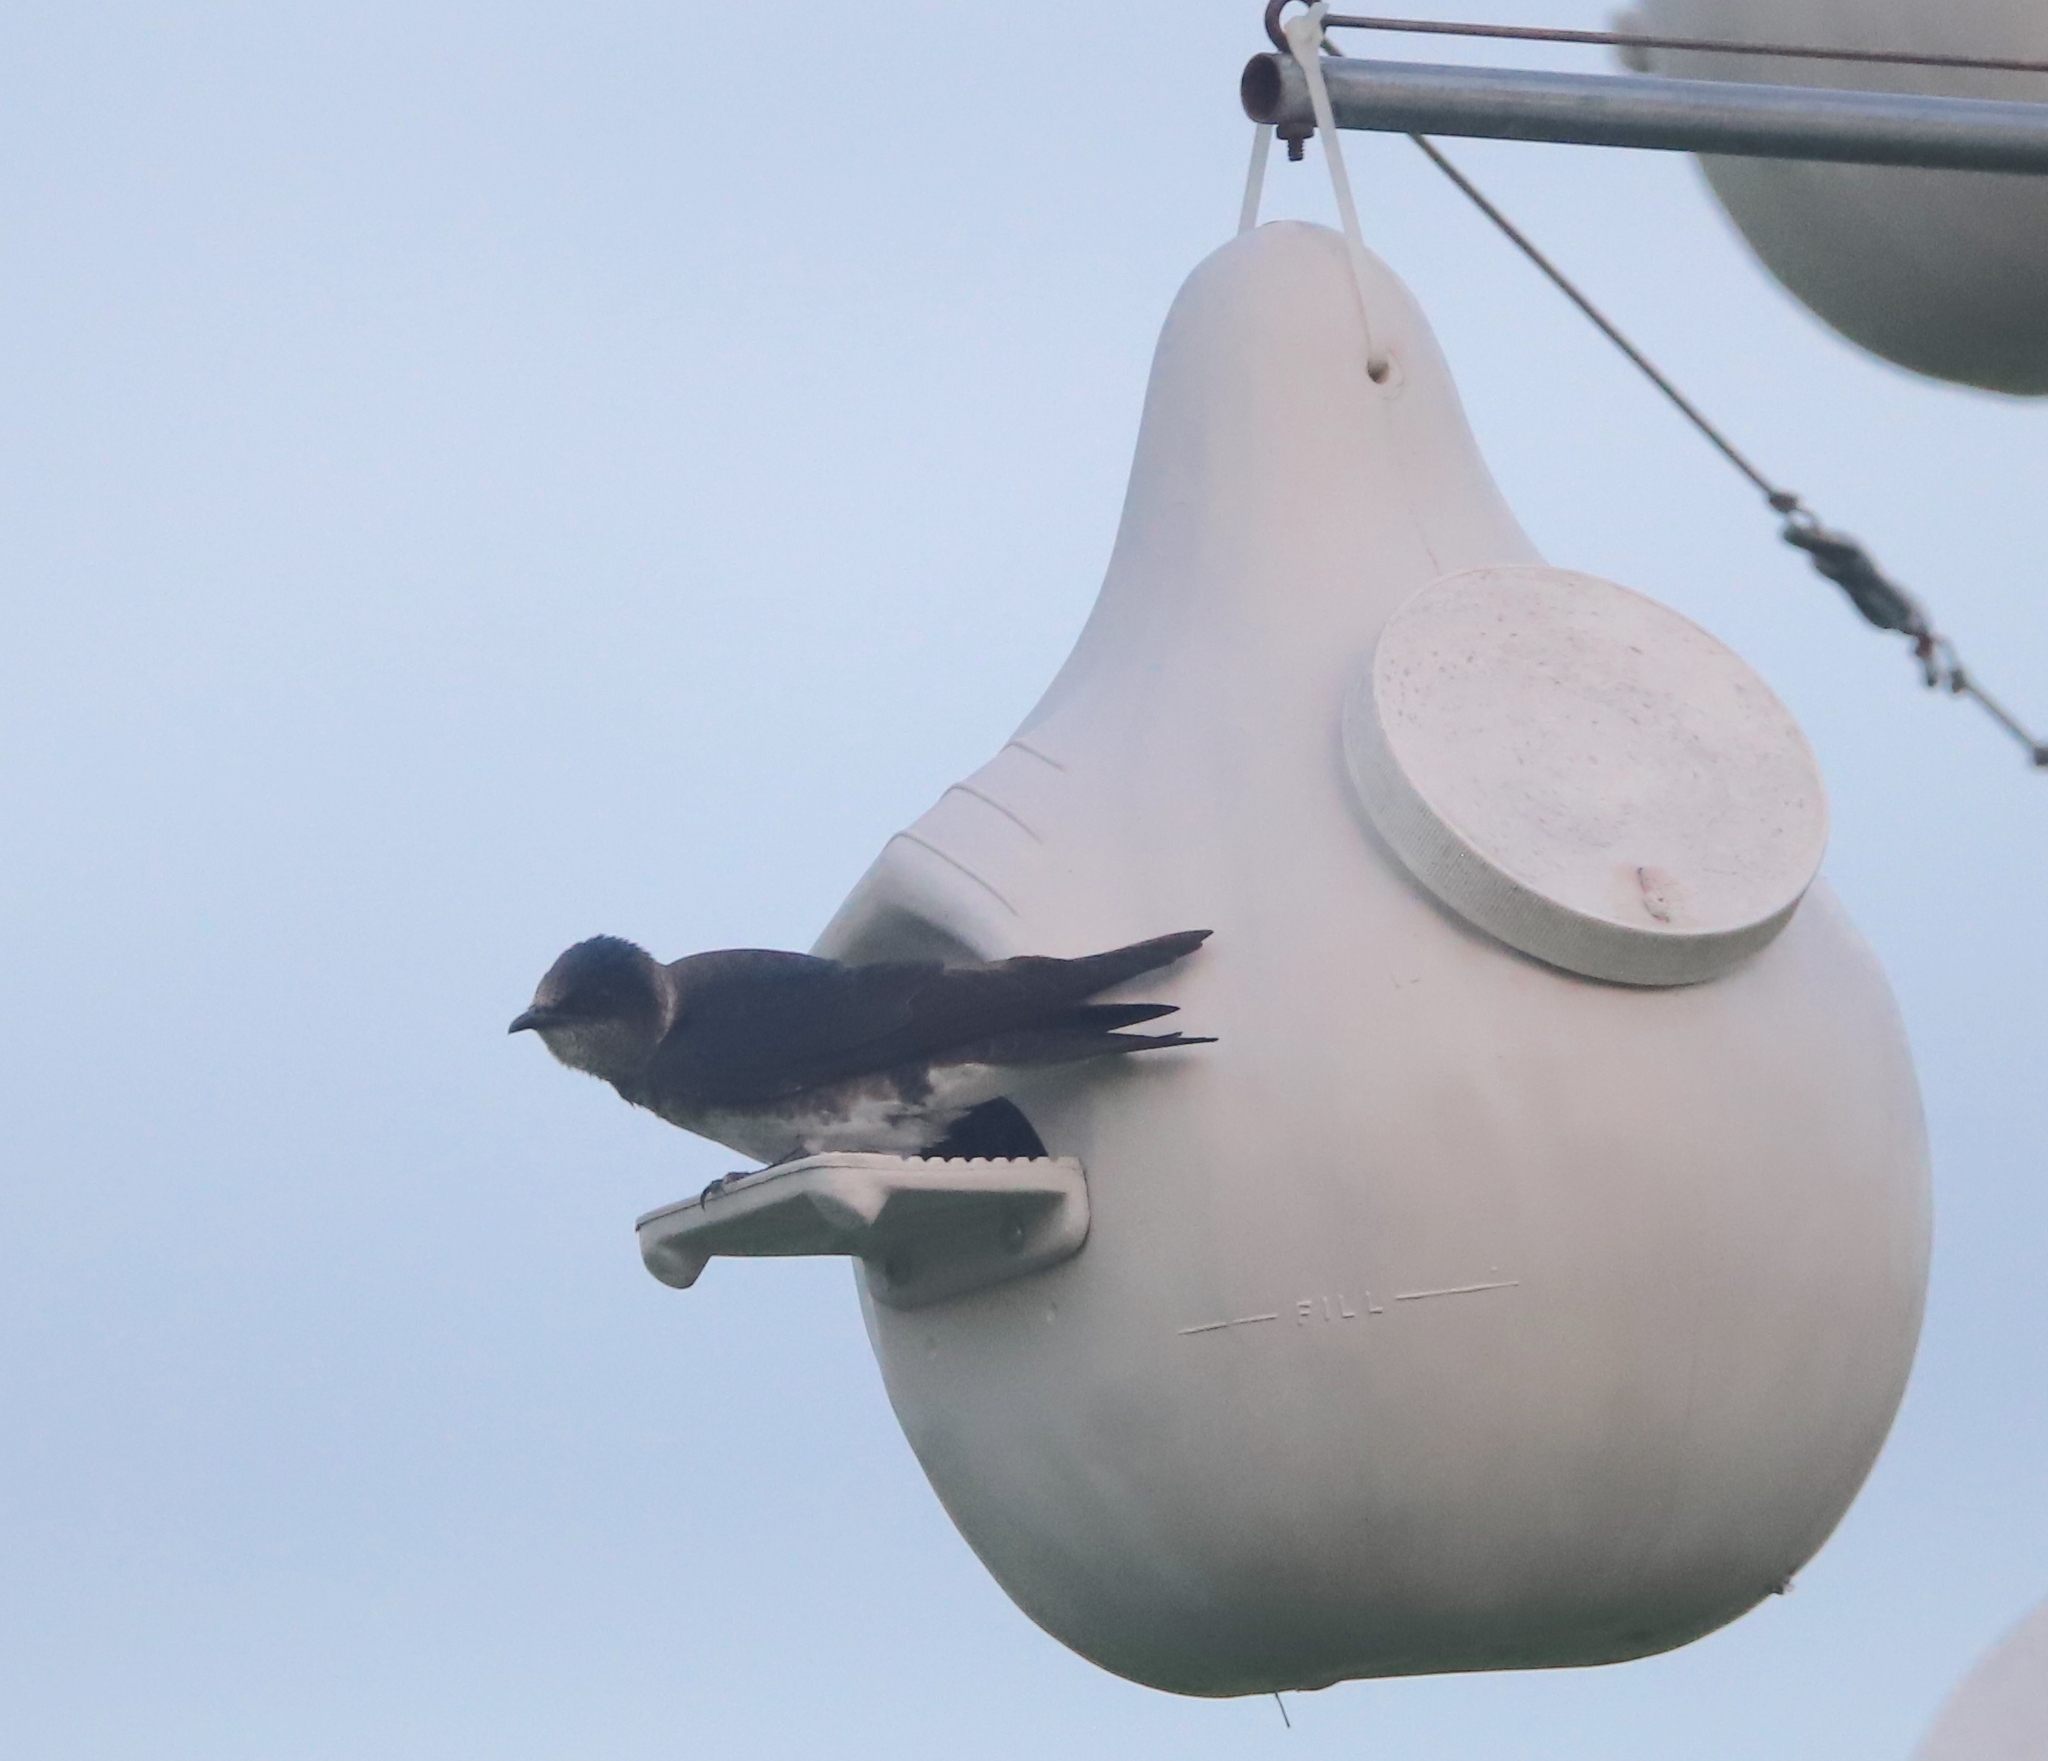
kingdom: Animalia
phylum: Chordata
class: Aves
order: Passeriformes
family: Hirundinidae
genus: Progne
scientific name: Progne subis
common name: Purple martin
